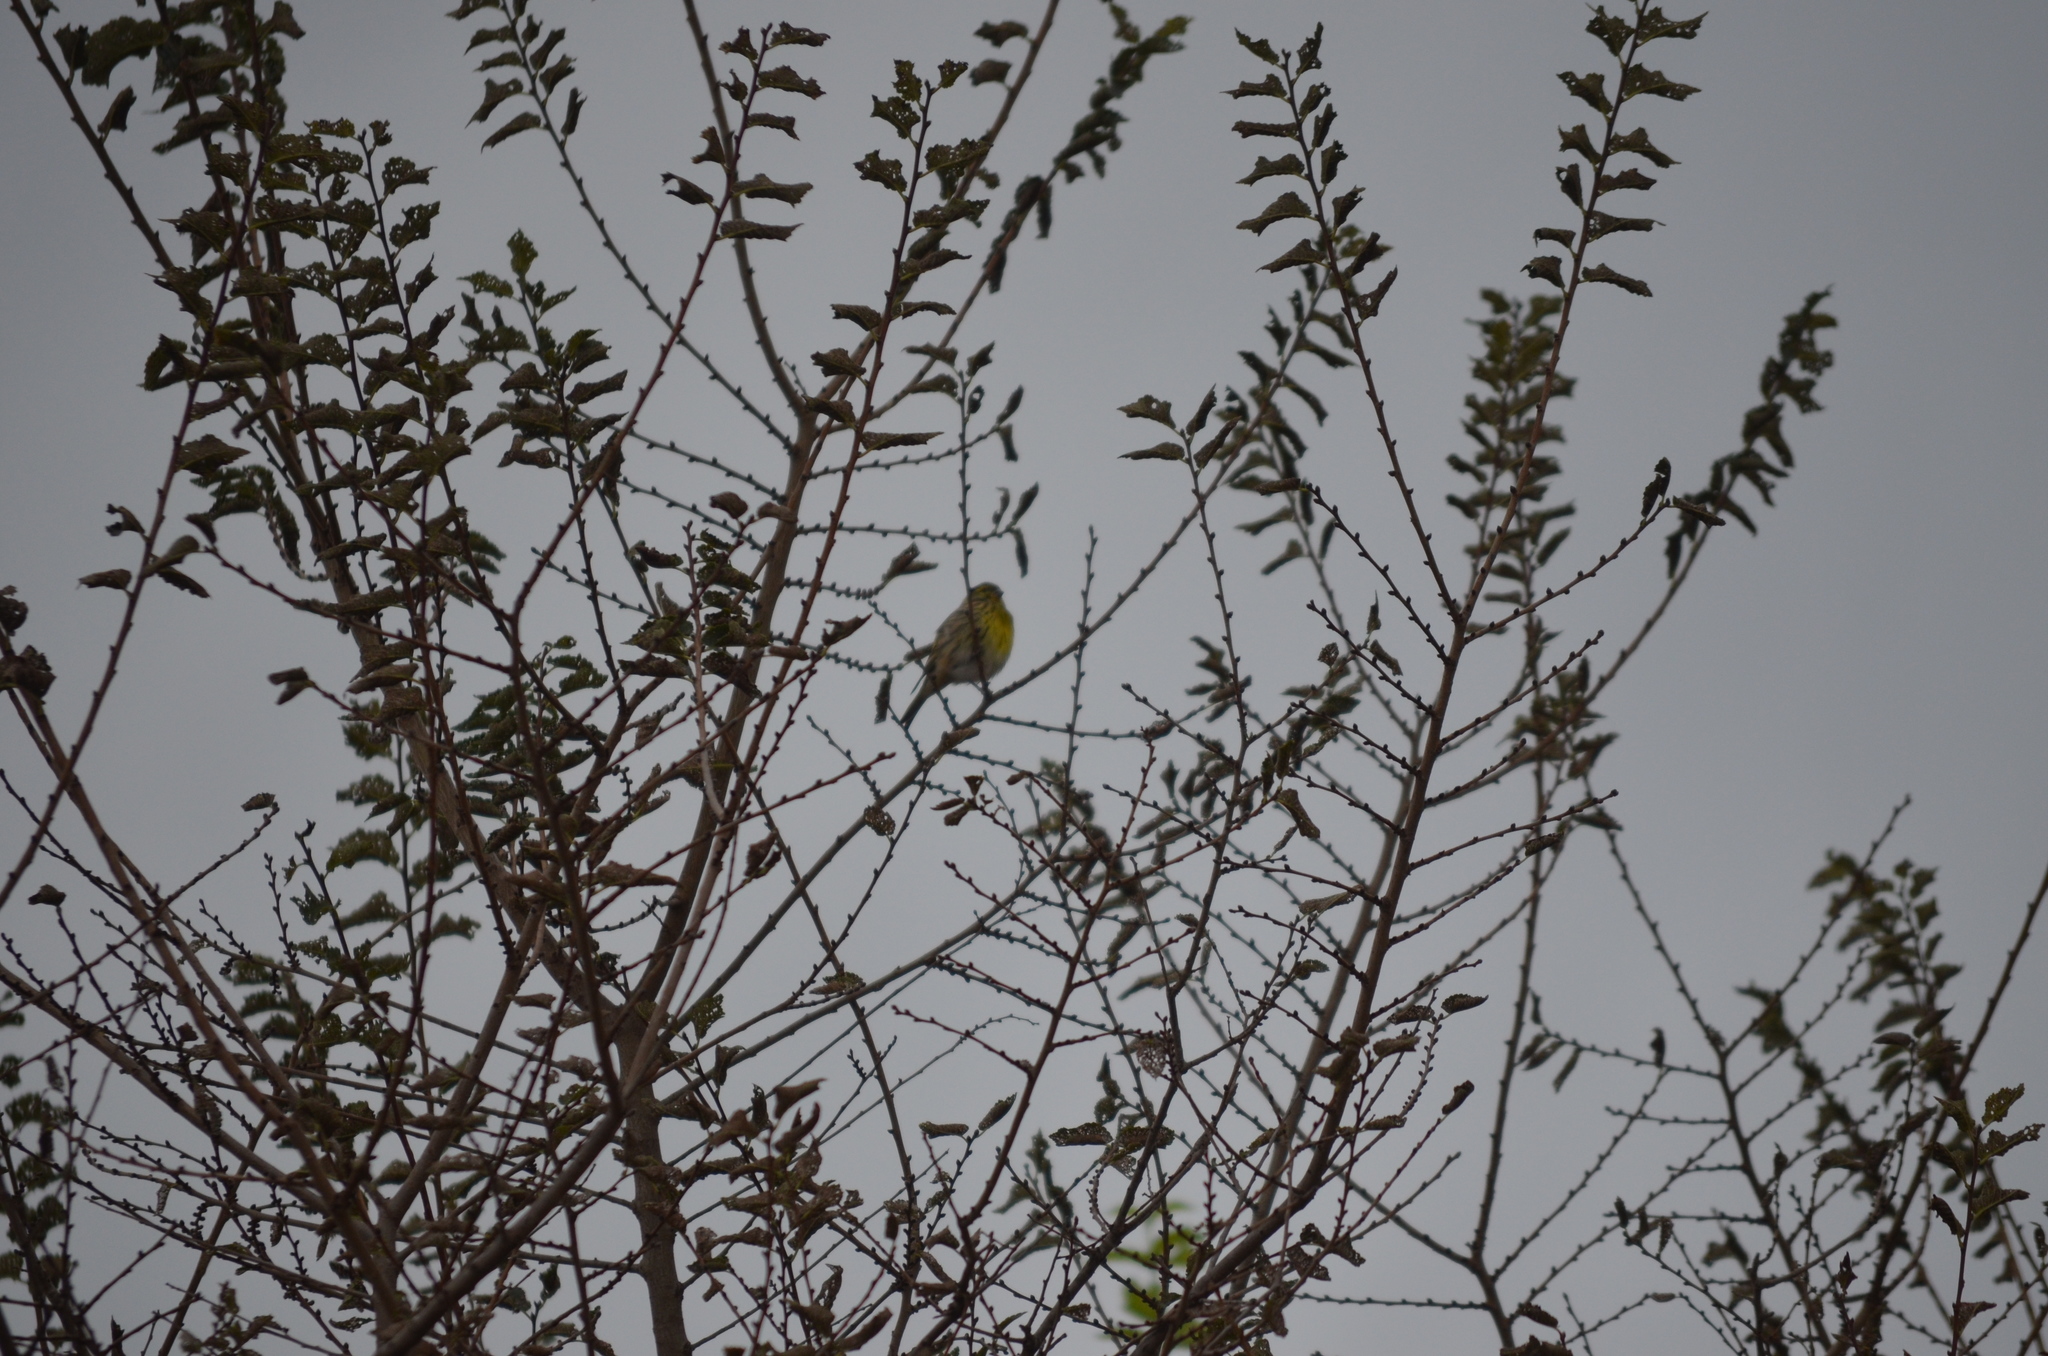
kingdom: Animalia
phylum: Chordata
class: Aves
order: Passeriformes
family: Fringillidae
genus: Serinus
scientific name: Serinus serinus
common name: European serin
